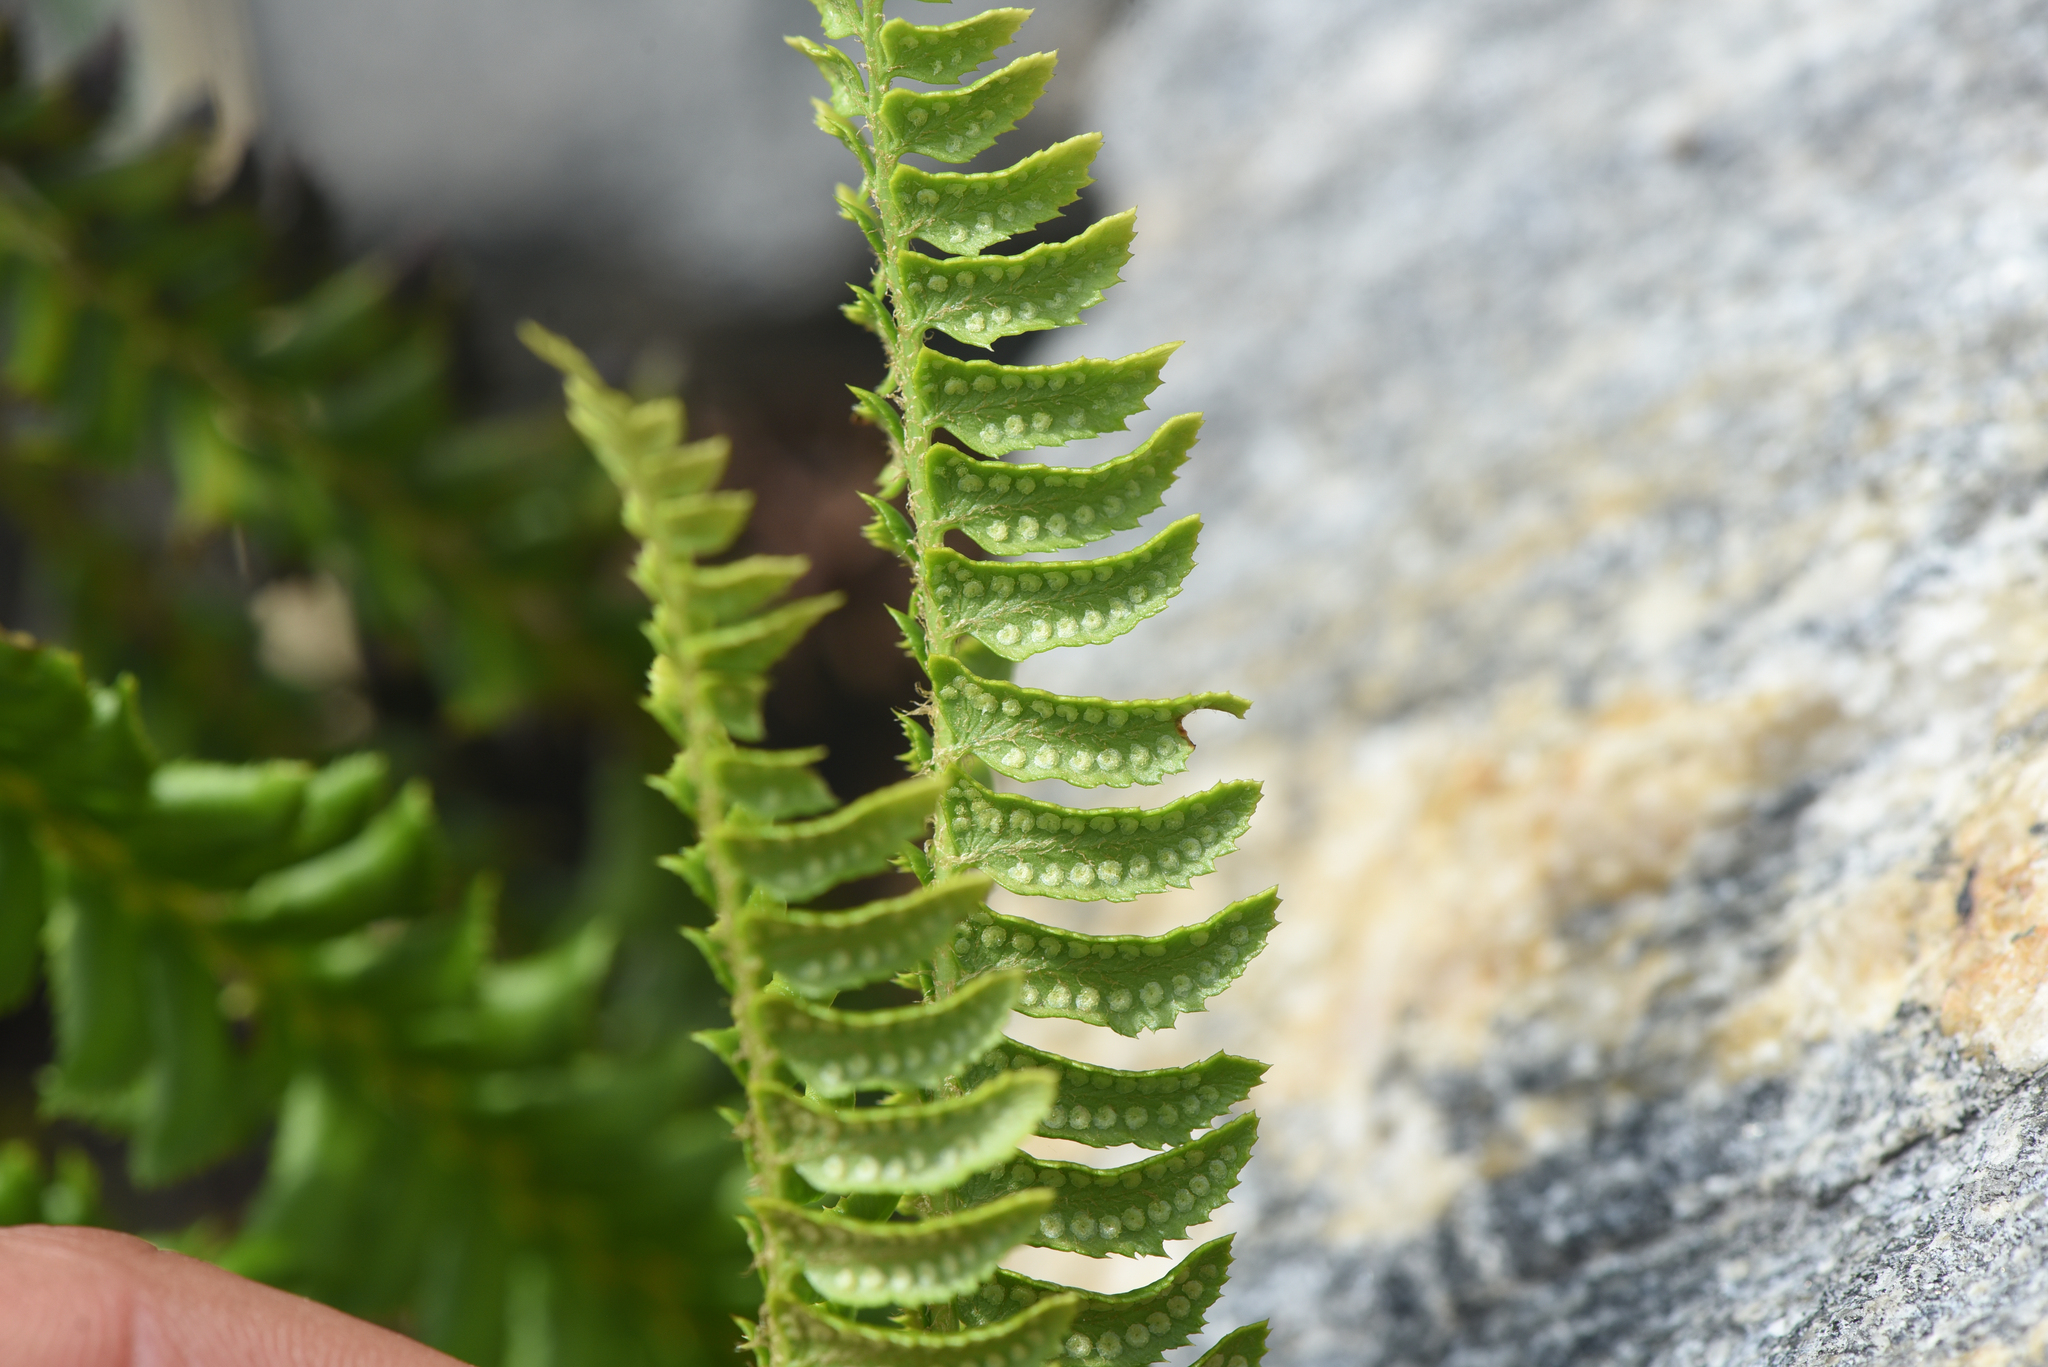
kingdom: Plantae
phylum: Tracheophyta
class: Polypodiopsida
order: Polypodiales
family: Dryopteridaceae
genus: Polystichum
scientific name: Polystichum lonchitis
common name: Holly fern
